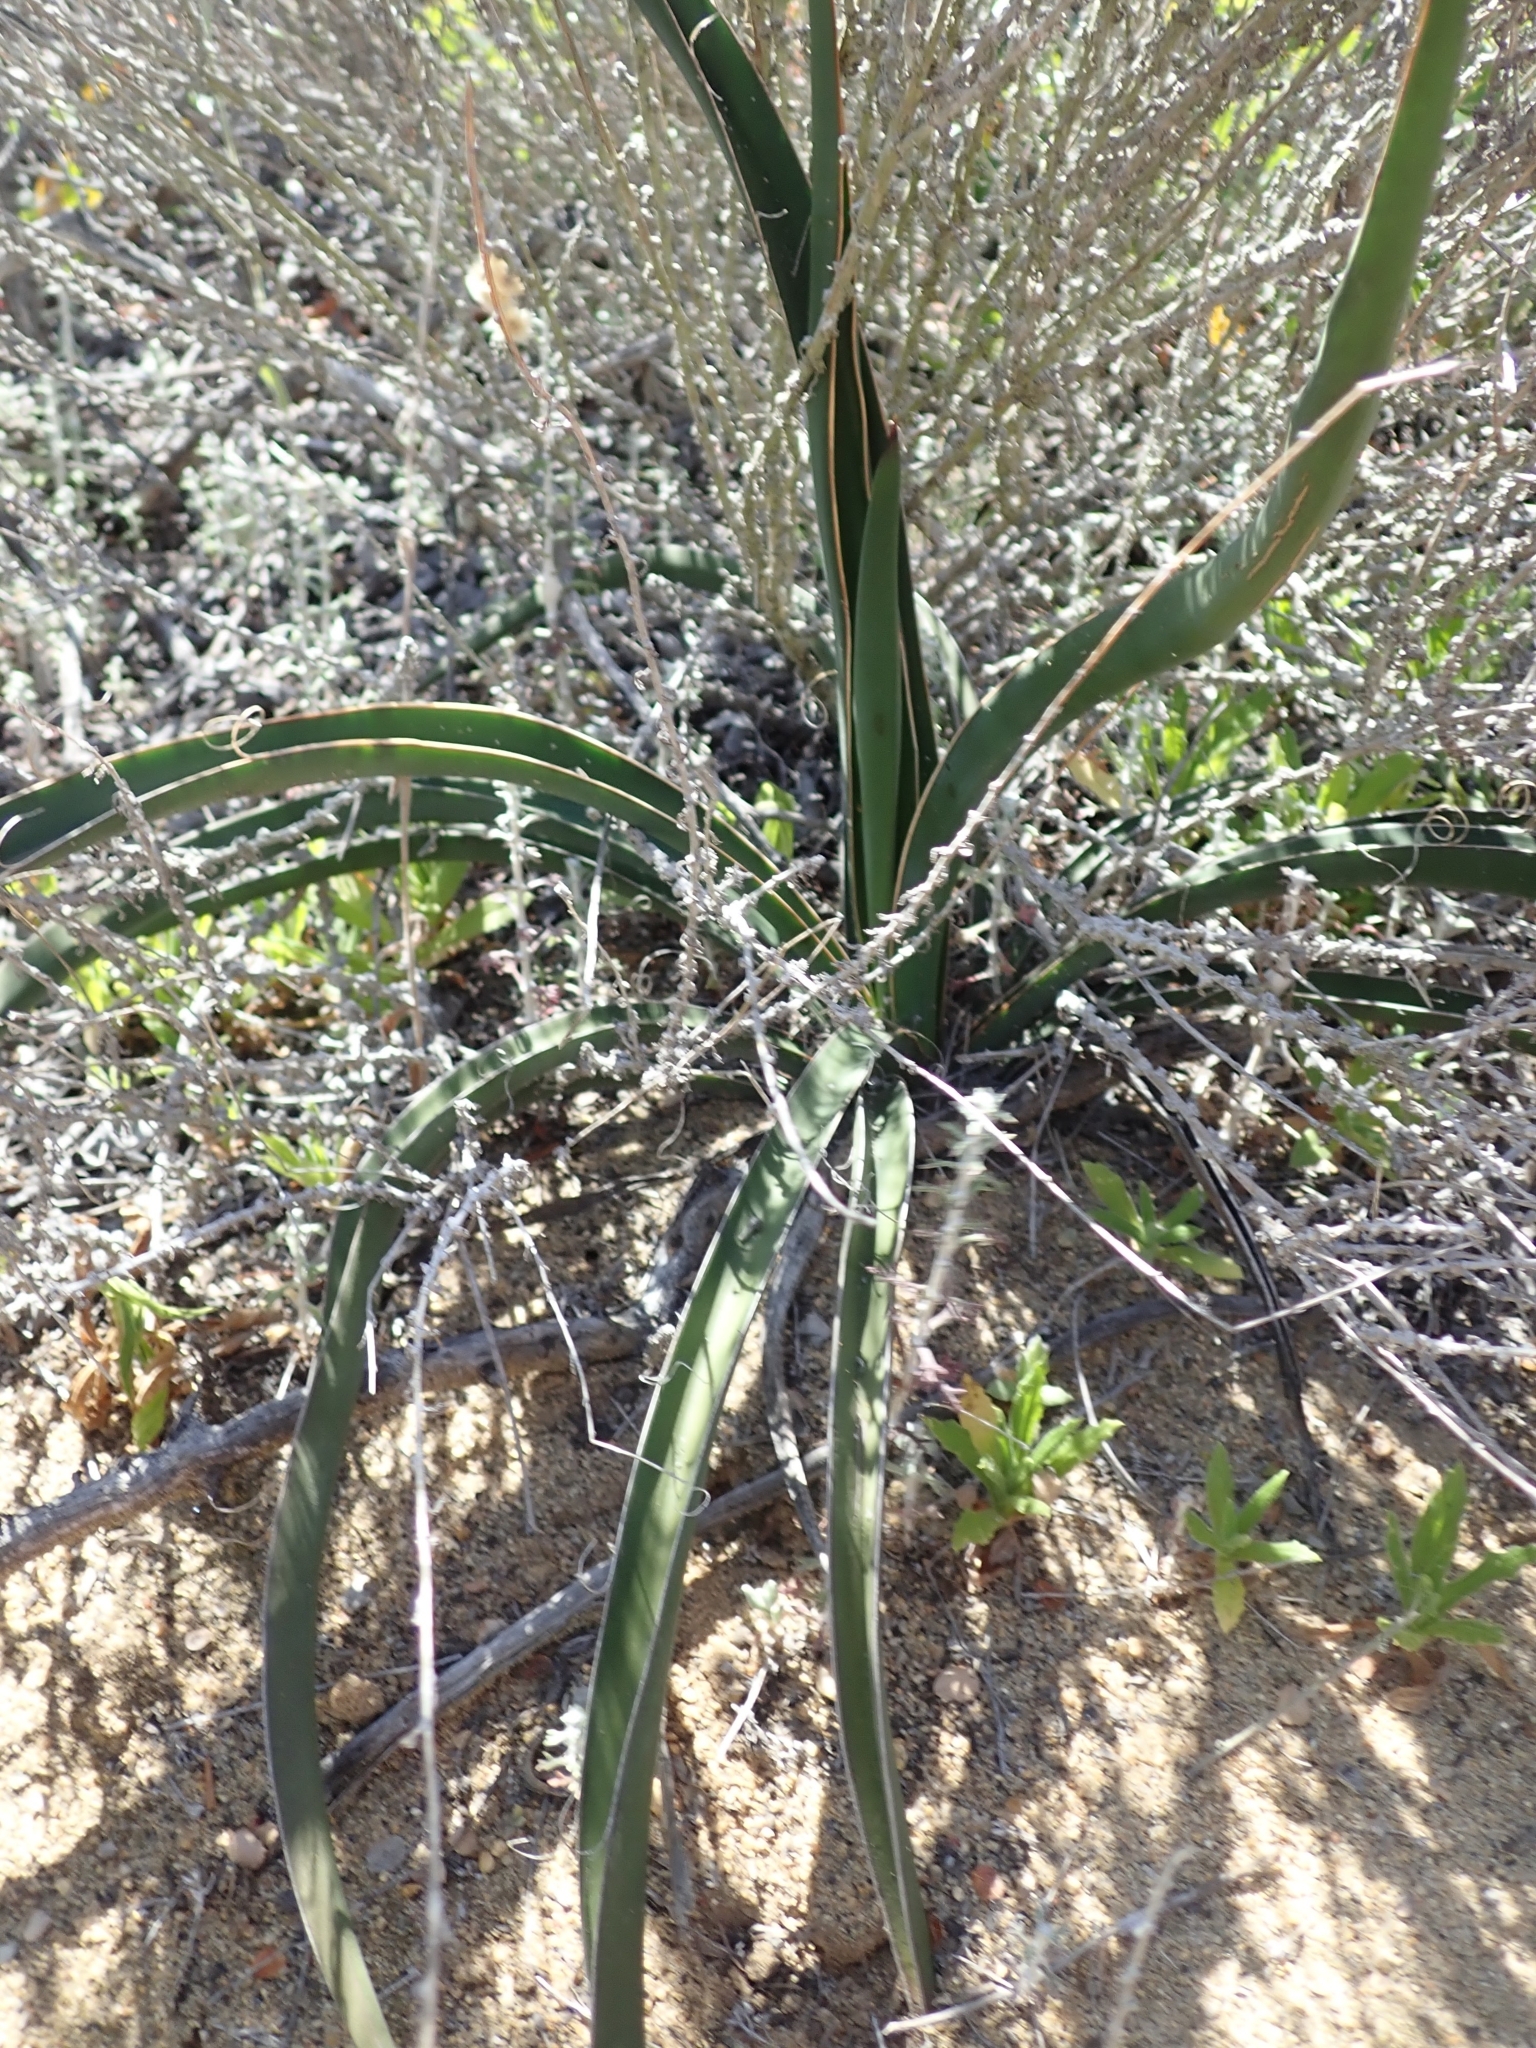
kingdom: Plantae
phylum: Tracheophyta
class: Liliopsida
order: Asparagales
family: Asparagaceae
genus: Yucca
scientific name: Yucca schidigera
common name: Mojave yucca
